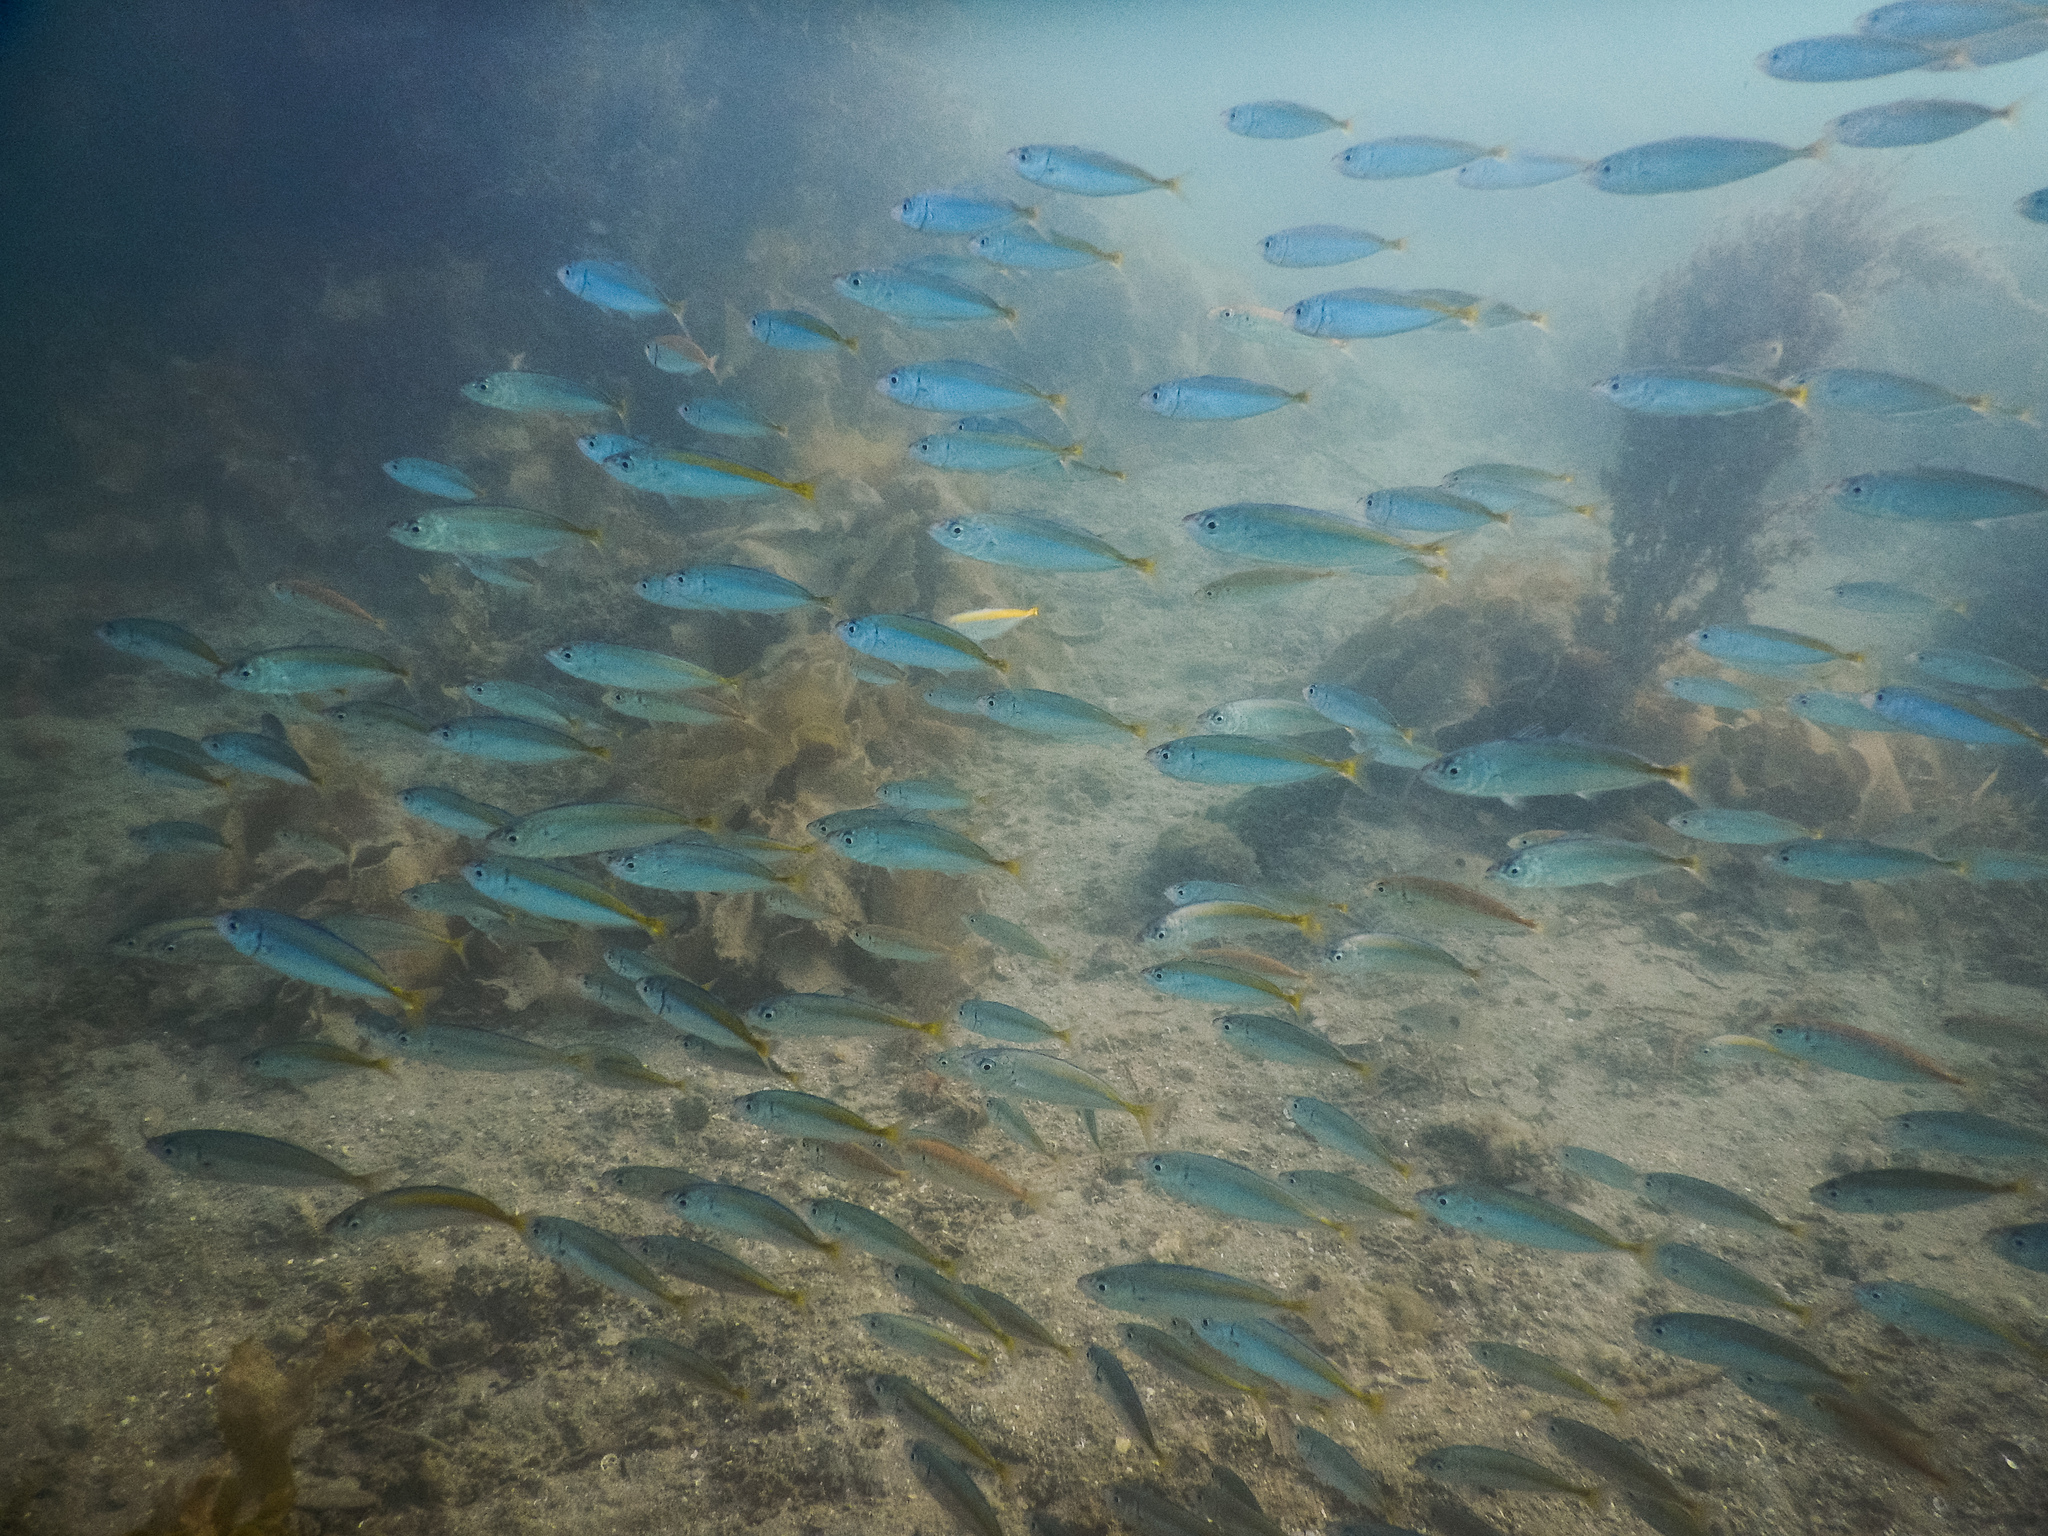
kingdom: Animalia
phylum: Chordata
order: Perciformes
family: Carangidae
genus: Decapterus
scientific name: Decapterus koheru
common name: Koheru
